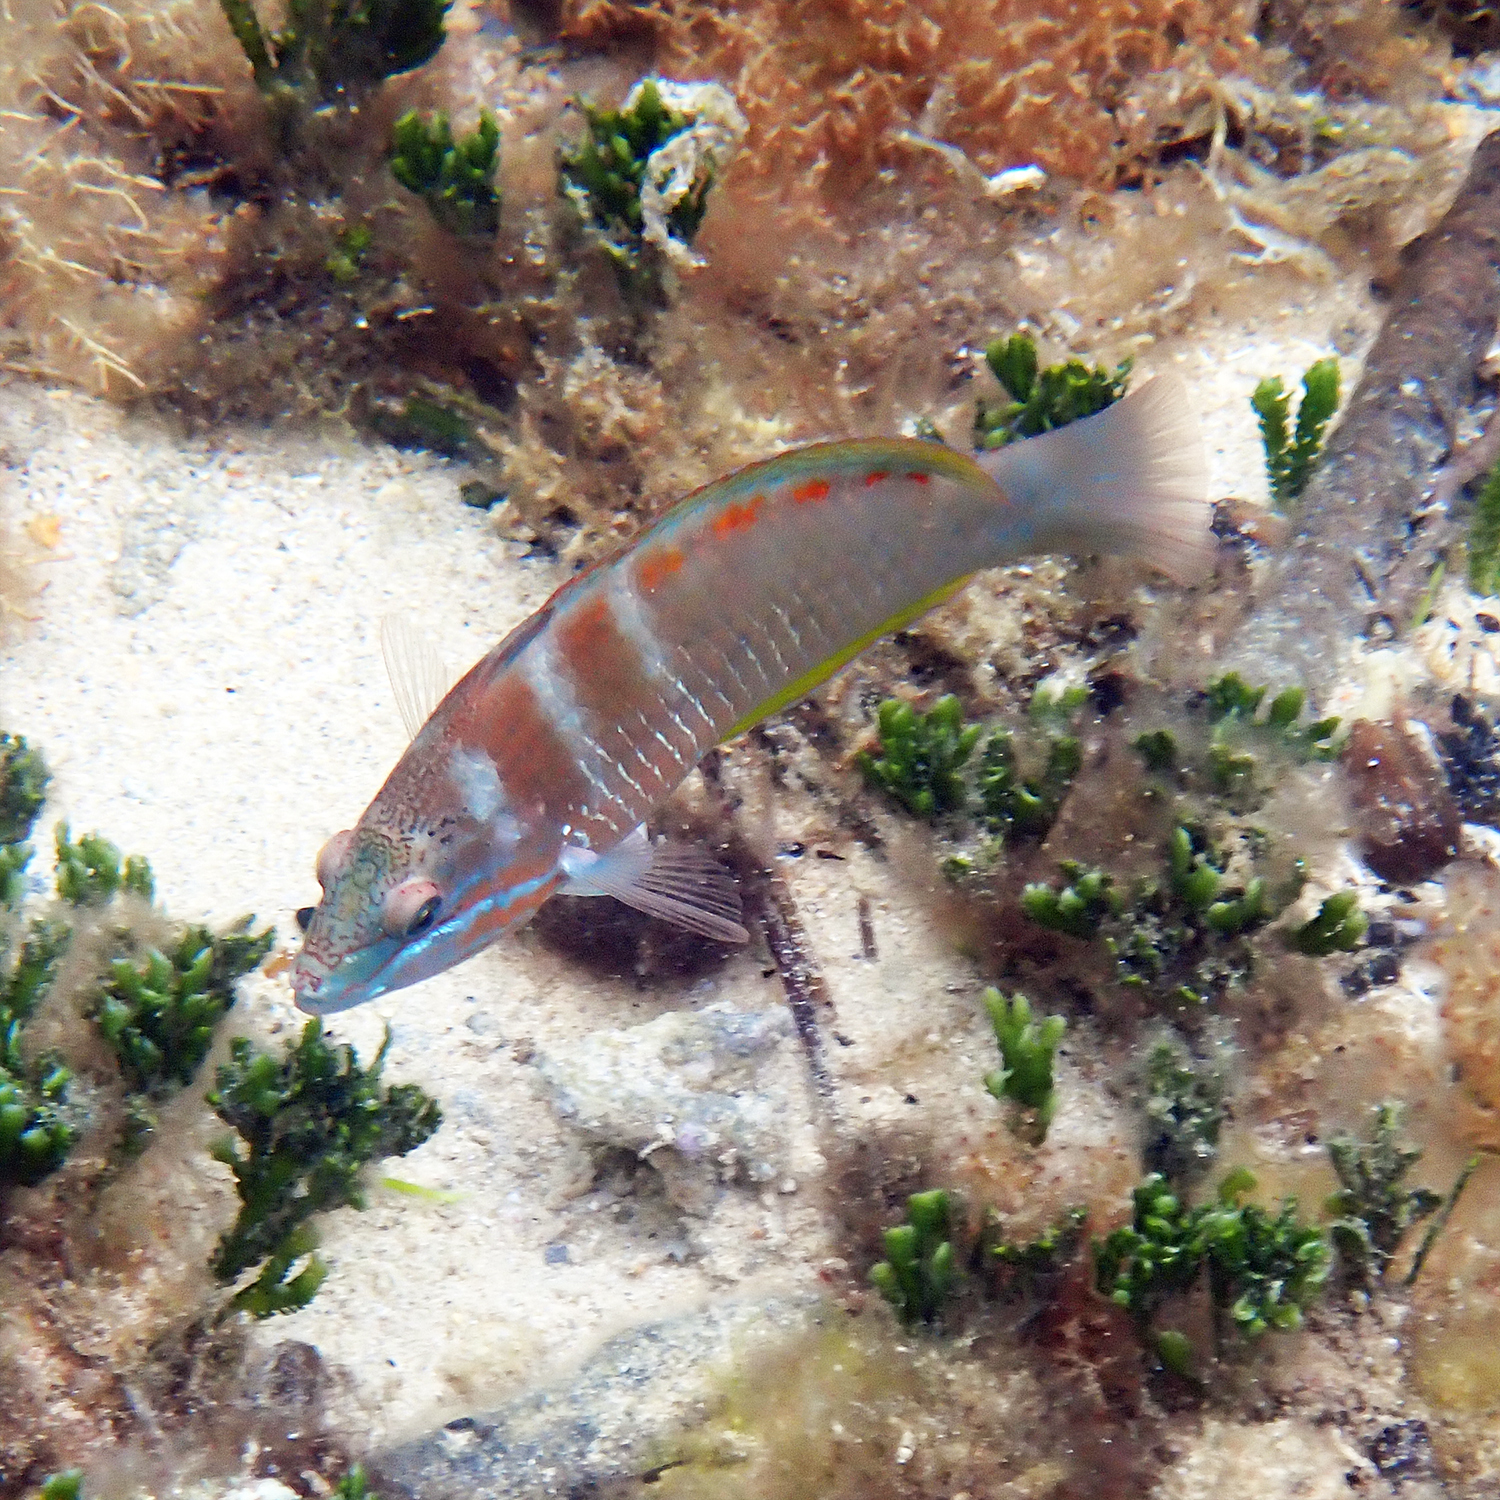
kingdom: Animalia
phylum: Chordata
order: Perciformes
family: Labridae
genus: Pseudolabrus
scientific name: Pseudolabrus luculentus
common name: Luculentus wrasse
